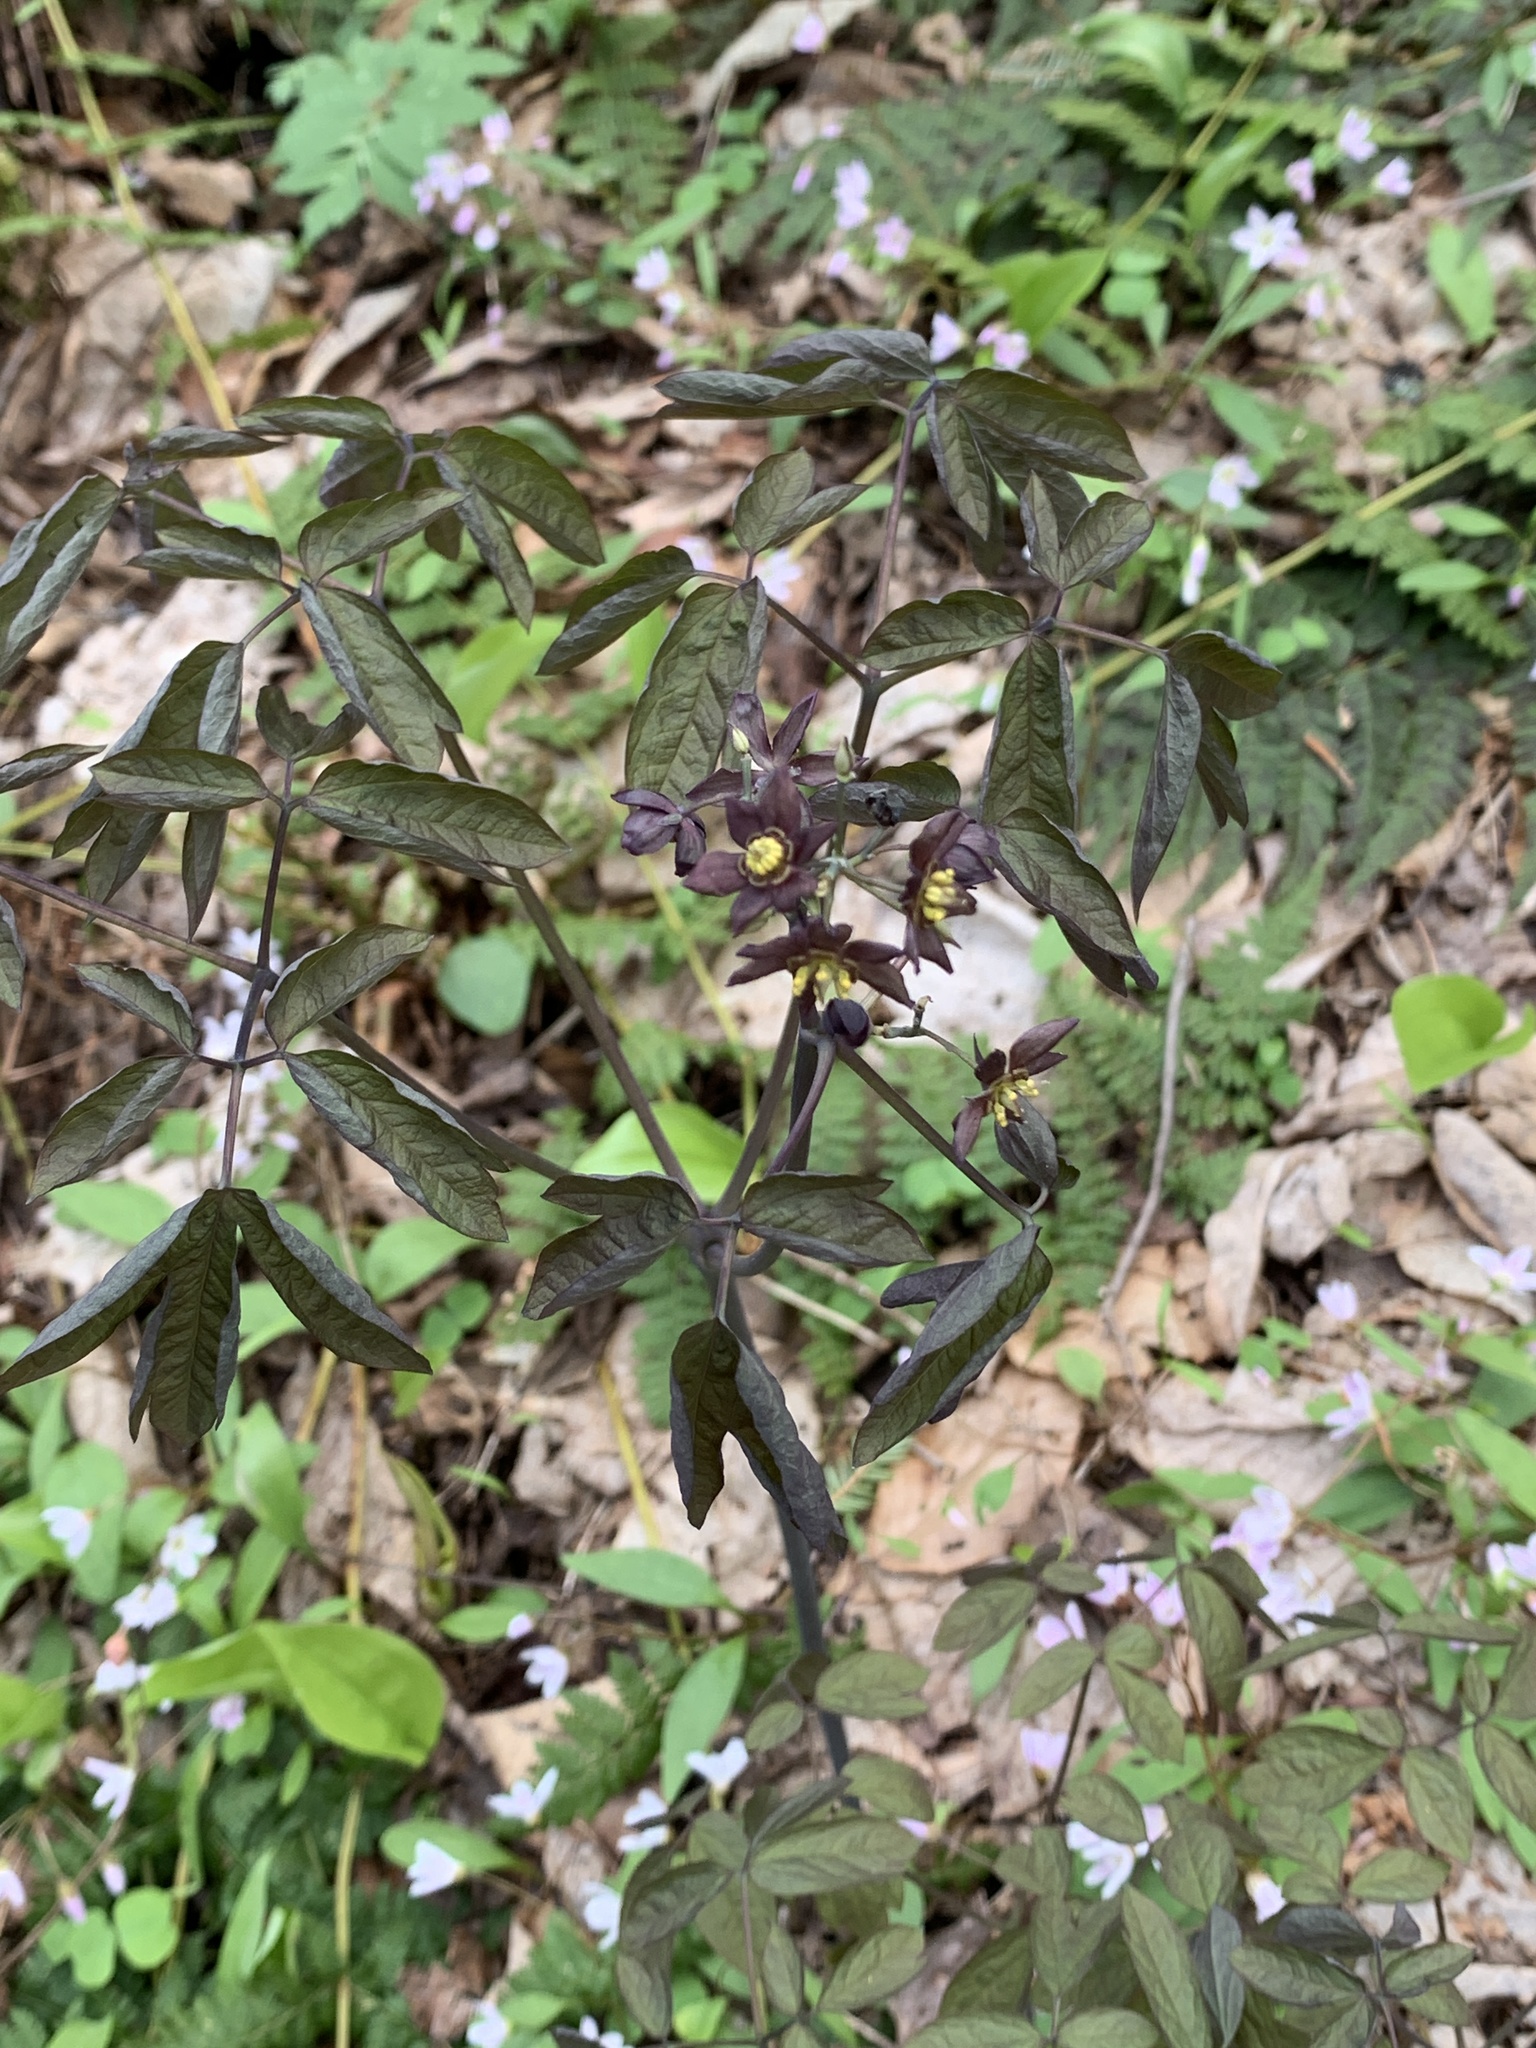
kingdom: Plantae
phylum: Tracheophyta
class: Magnoliopsida
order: Ranunculales
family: Berberidaceae
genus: Caulophyllum
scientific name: Caulophyllum giganteum
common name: Blue cohosh
